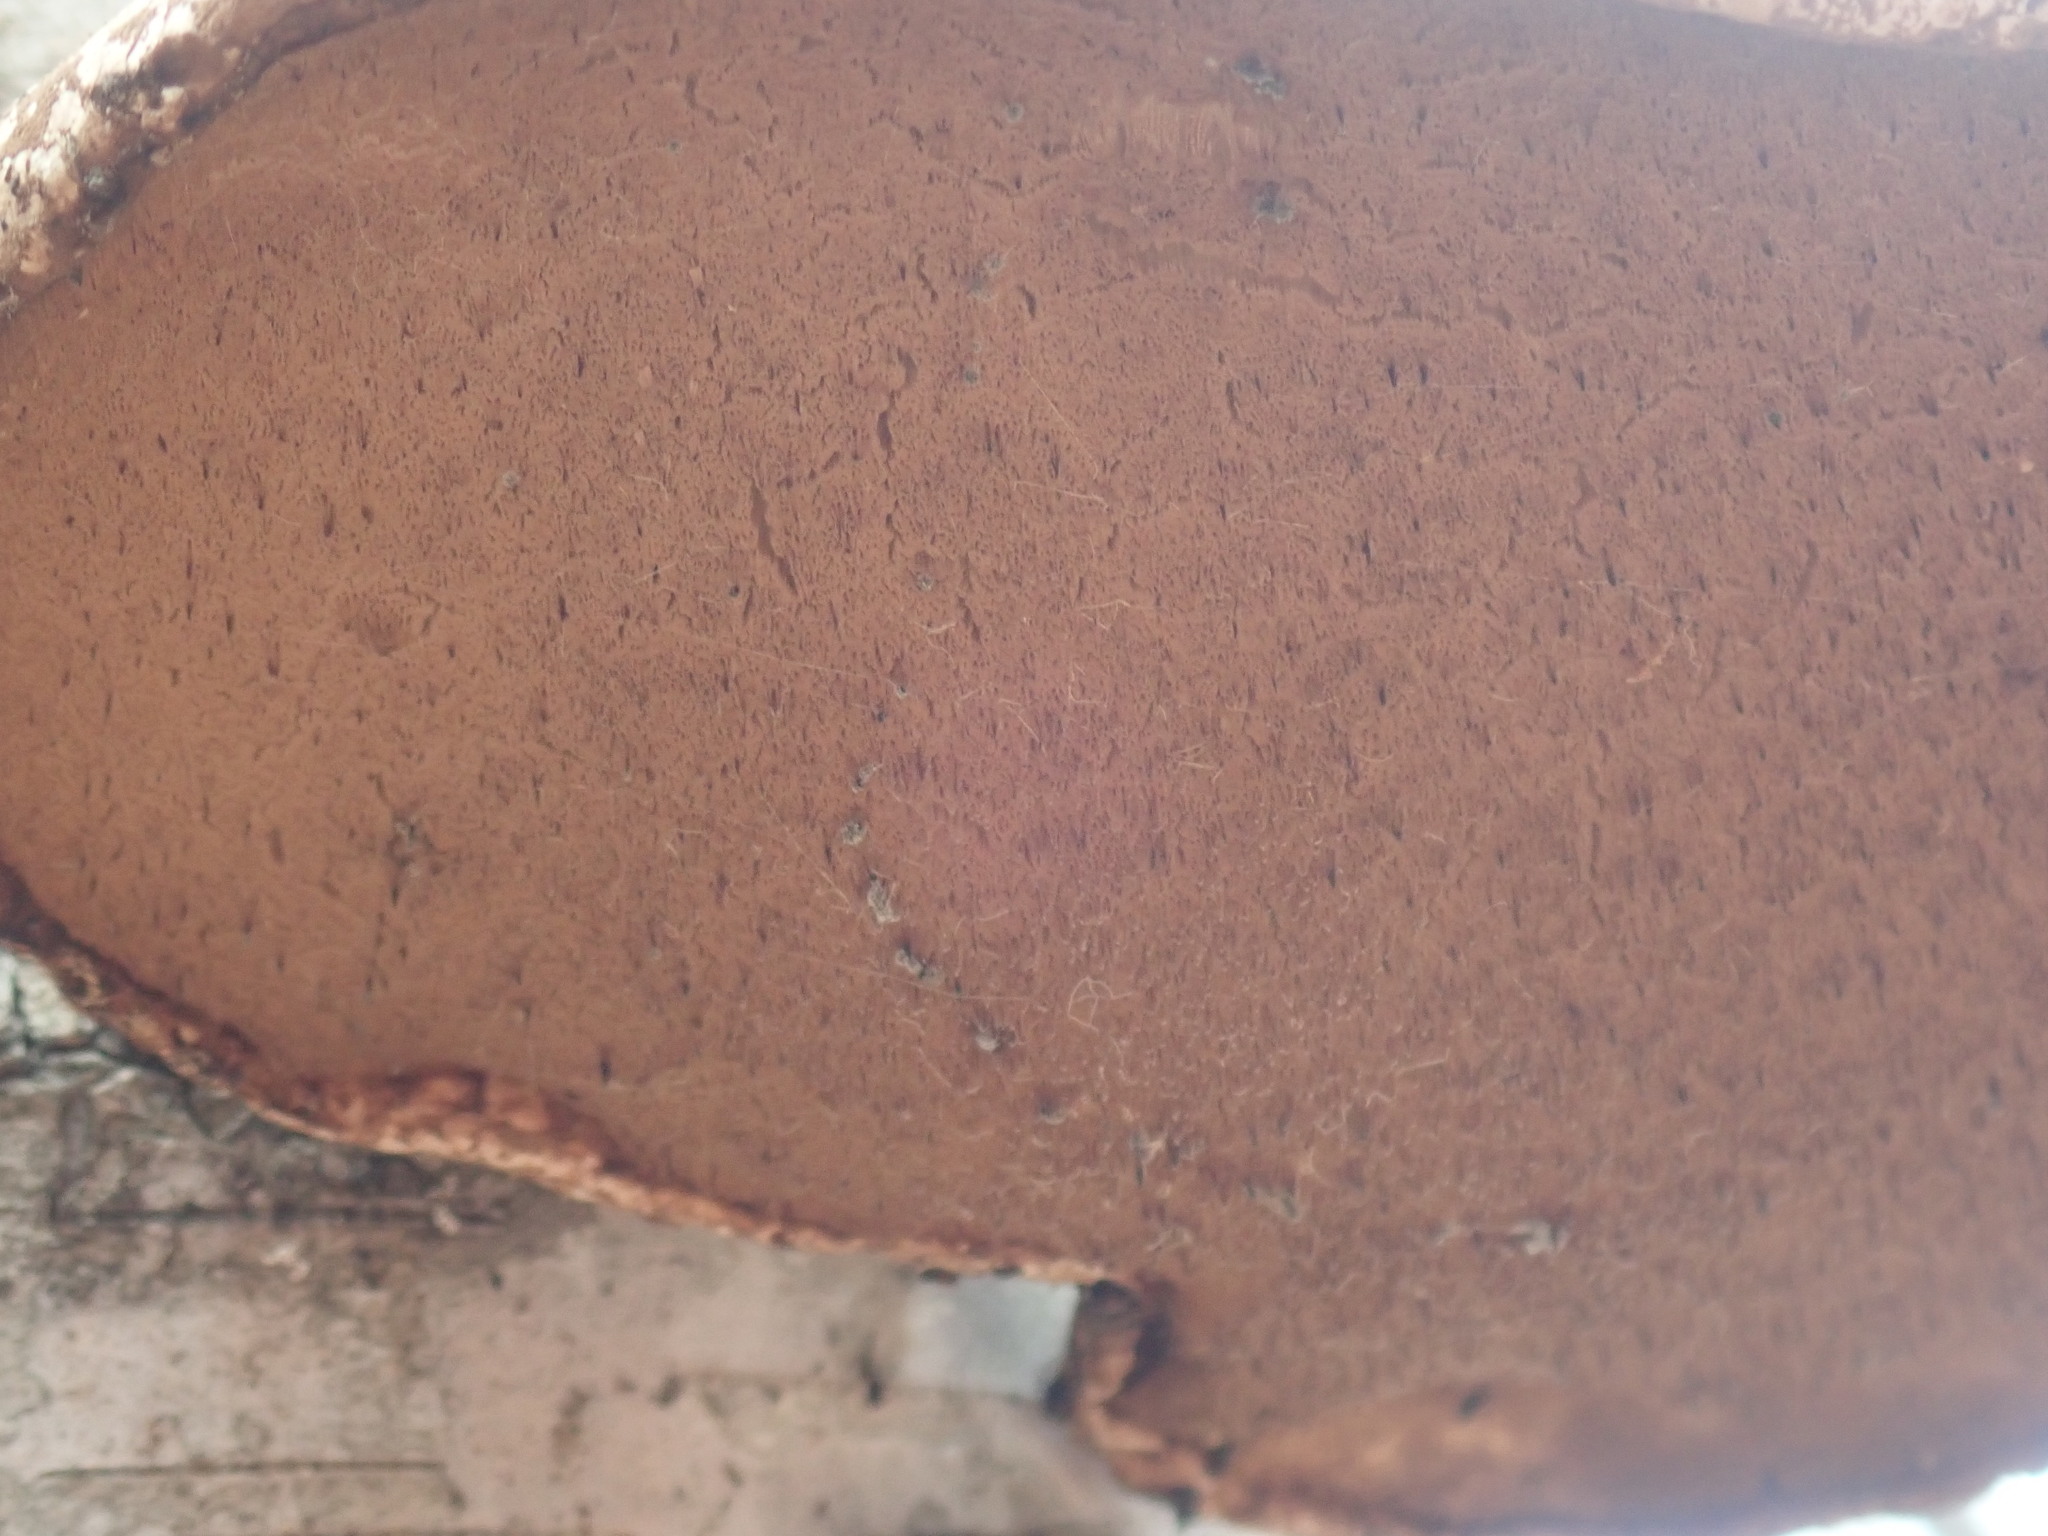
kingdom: Fungi
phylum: Basidiomycota
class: Agaricomycetes
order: Polyporales
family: Fomitopsidaceae
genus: Fomitopsis
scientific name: Fomitopsis betulina
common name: Birch polypore
